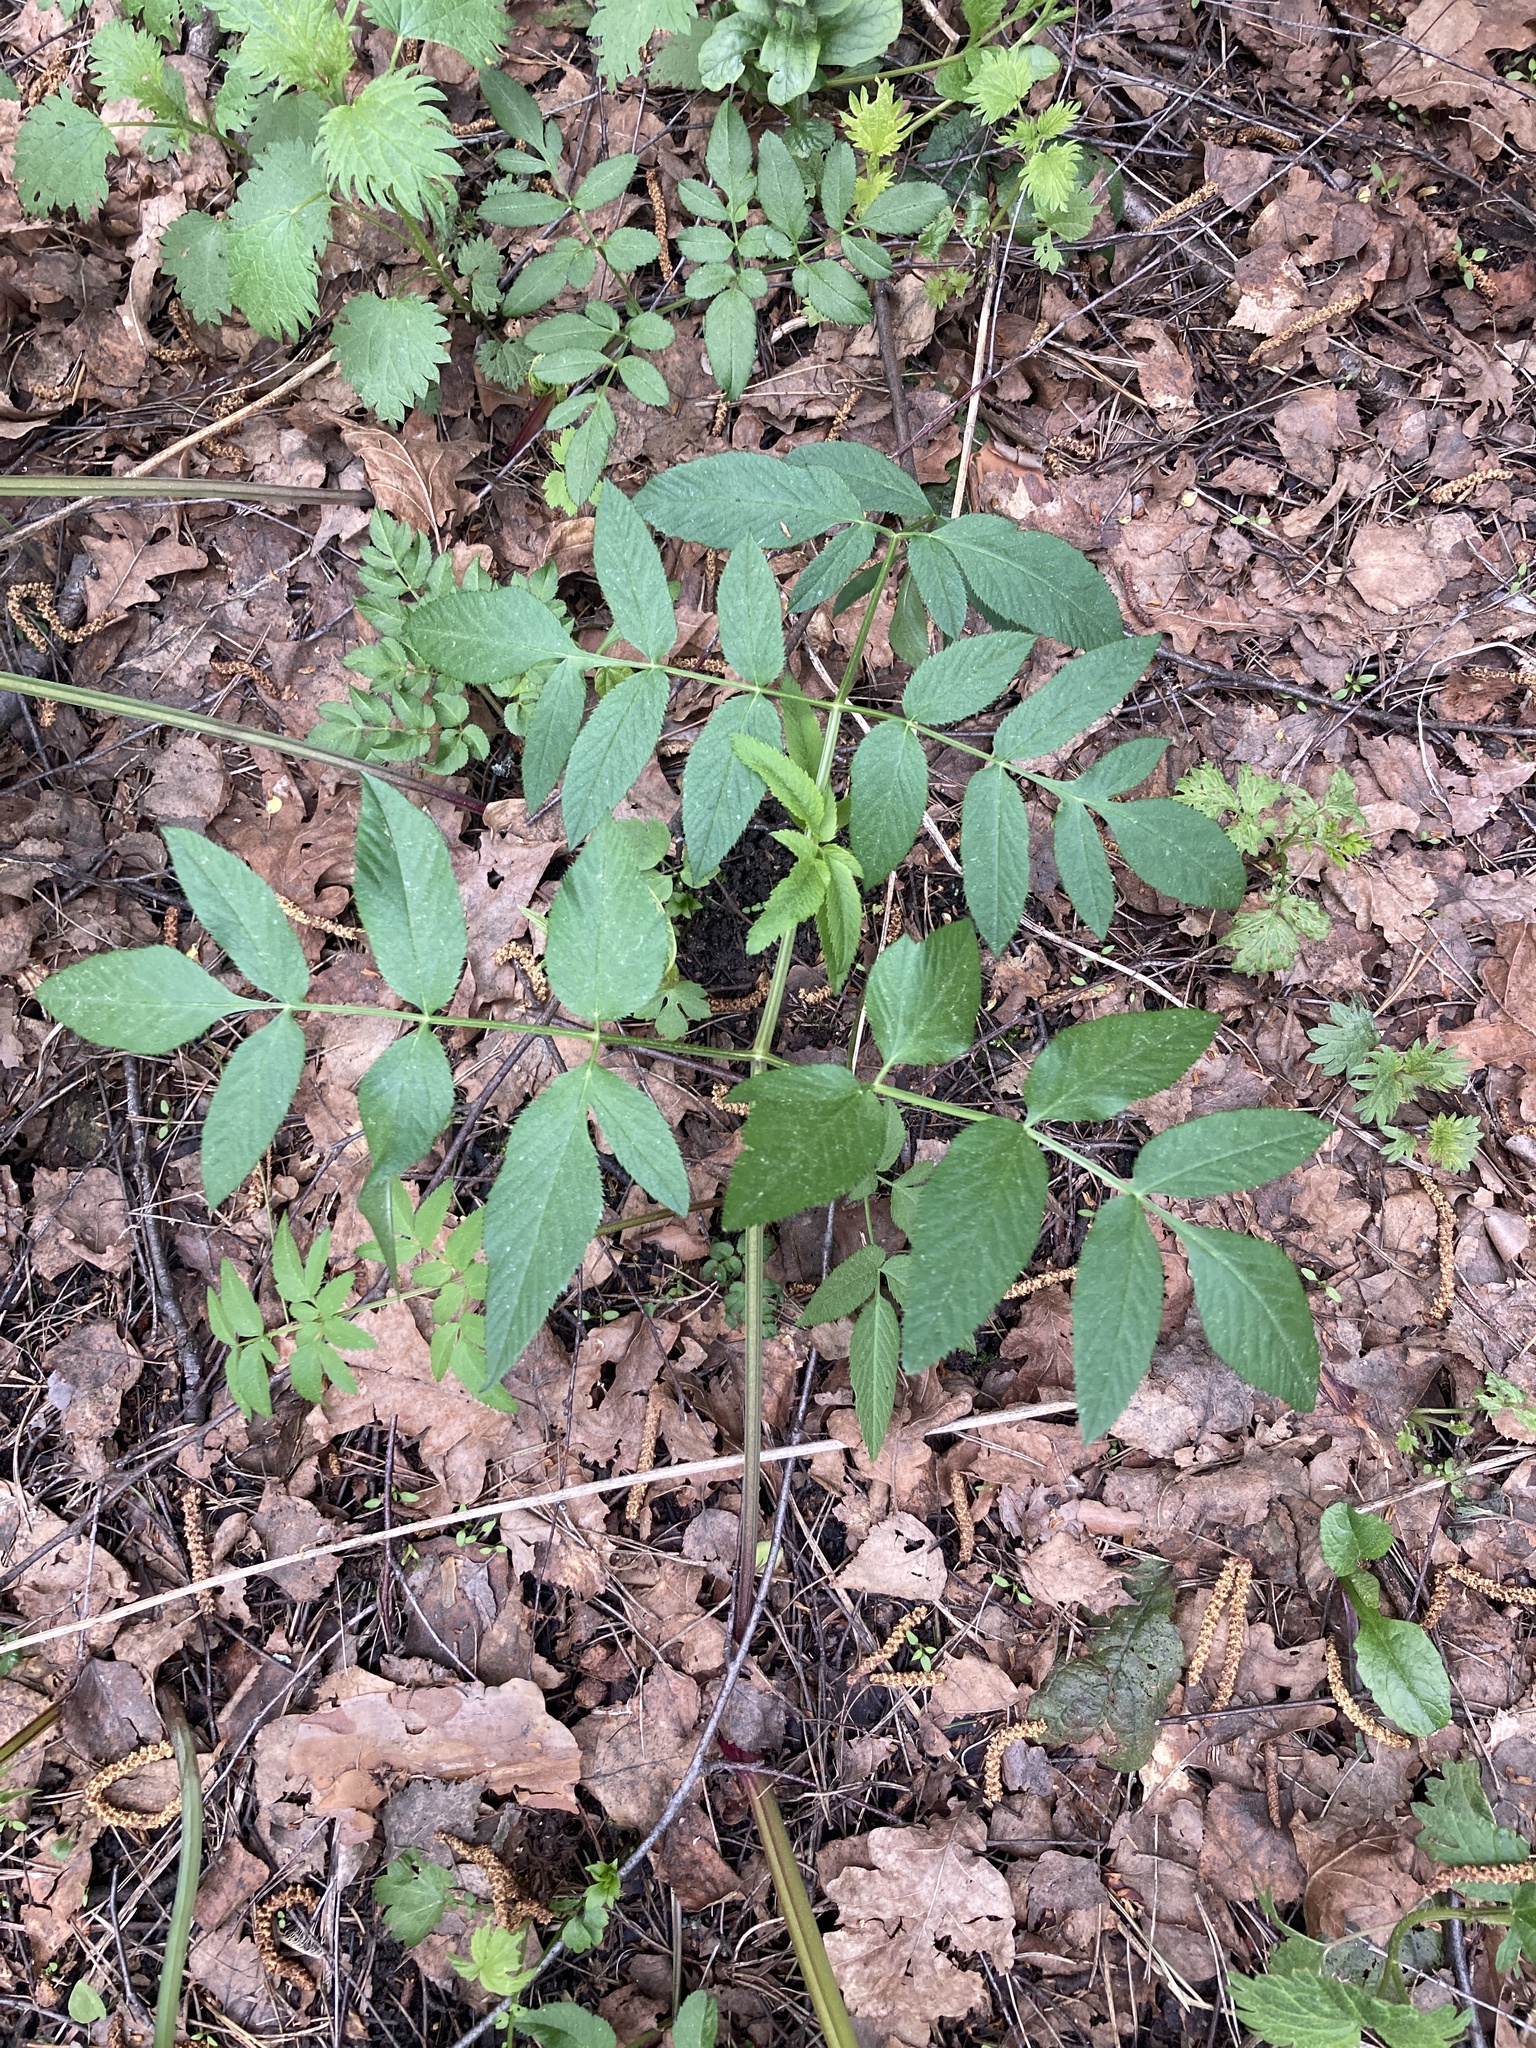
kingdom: Plantae
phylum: Tracheophyta
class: Magnoliopsida
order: Apiales
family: Apiaceae
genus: Angelica
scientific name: Angelica sylvestris
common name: Wild angelica
